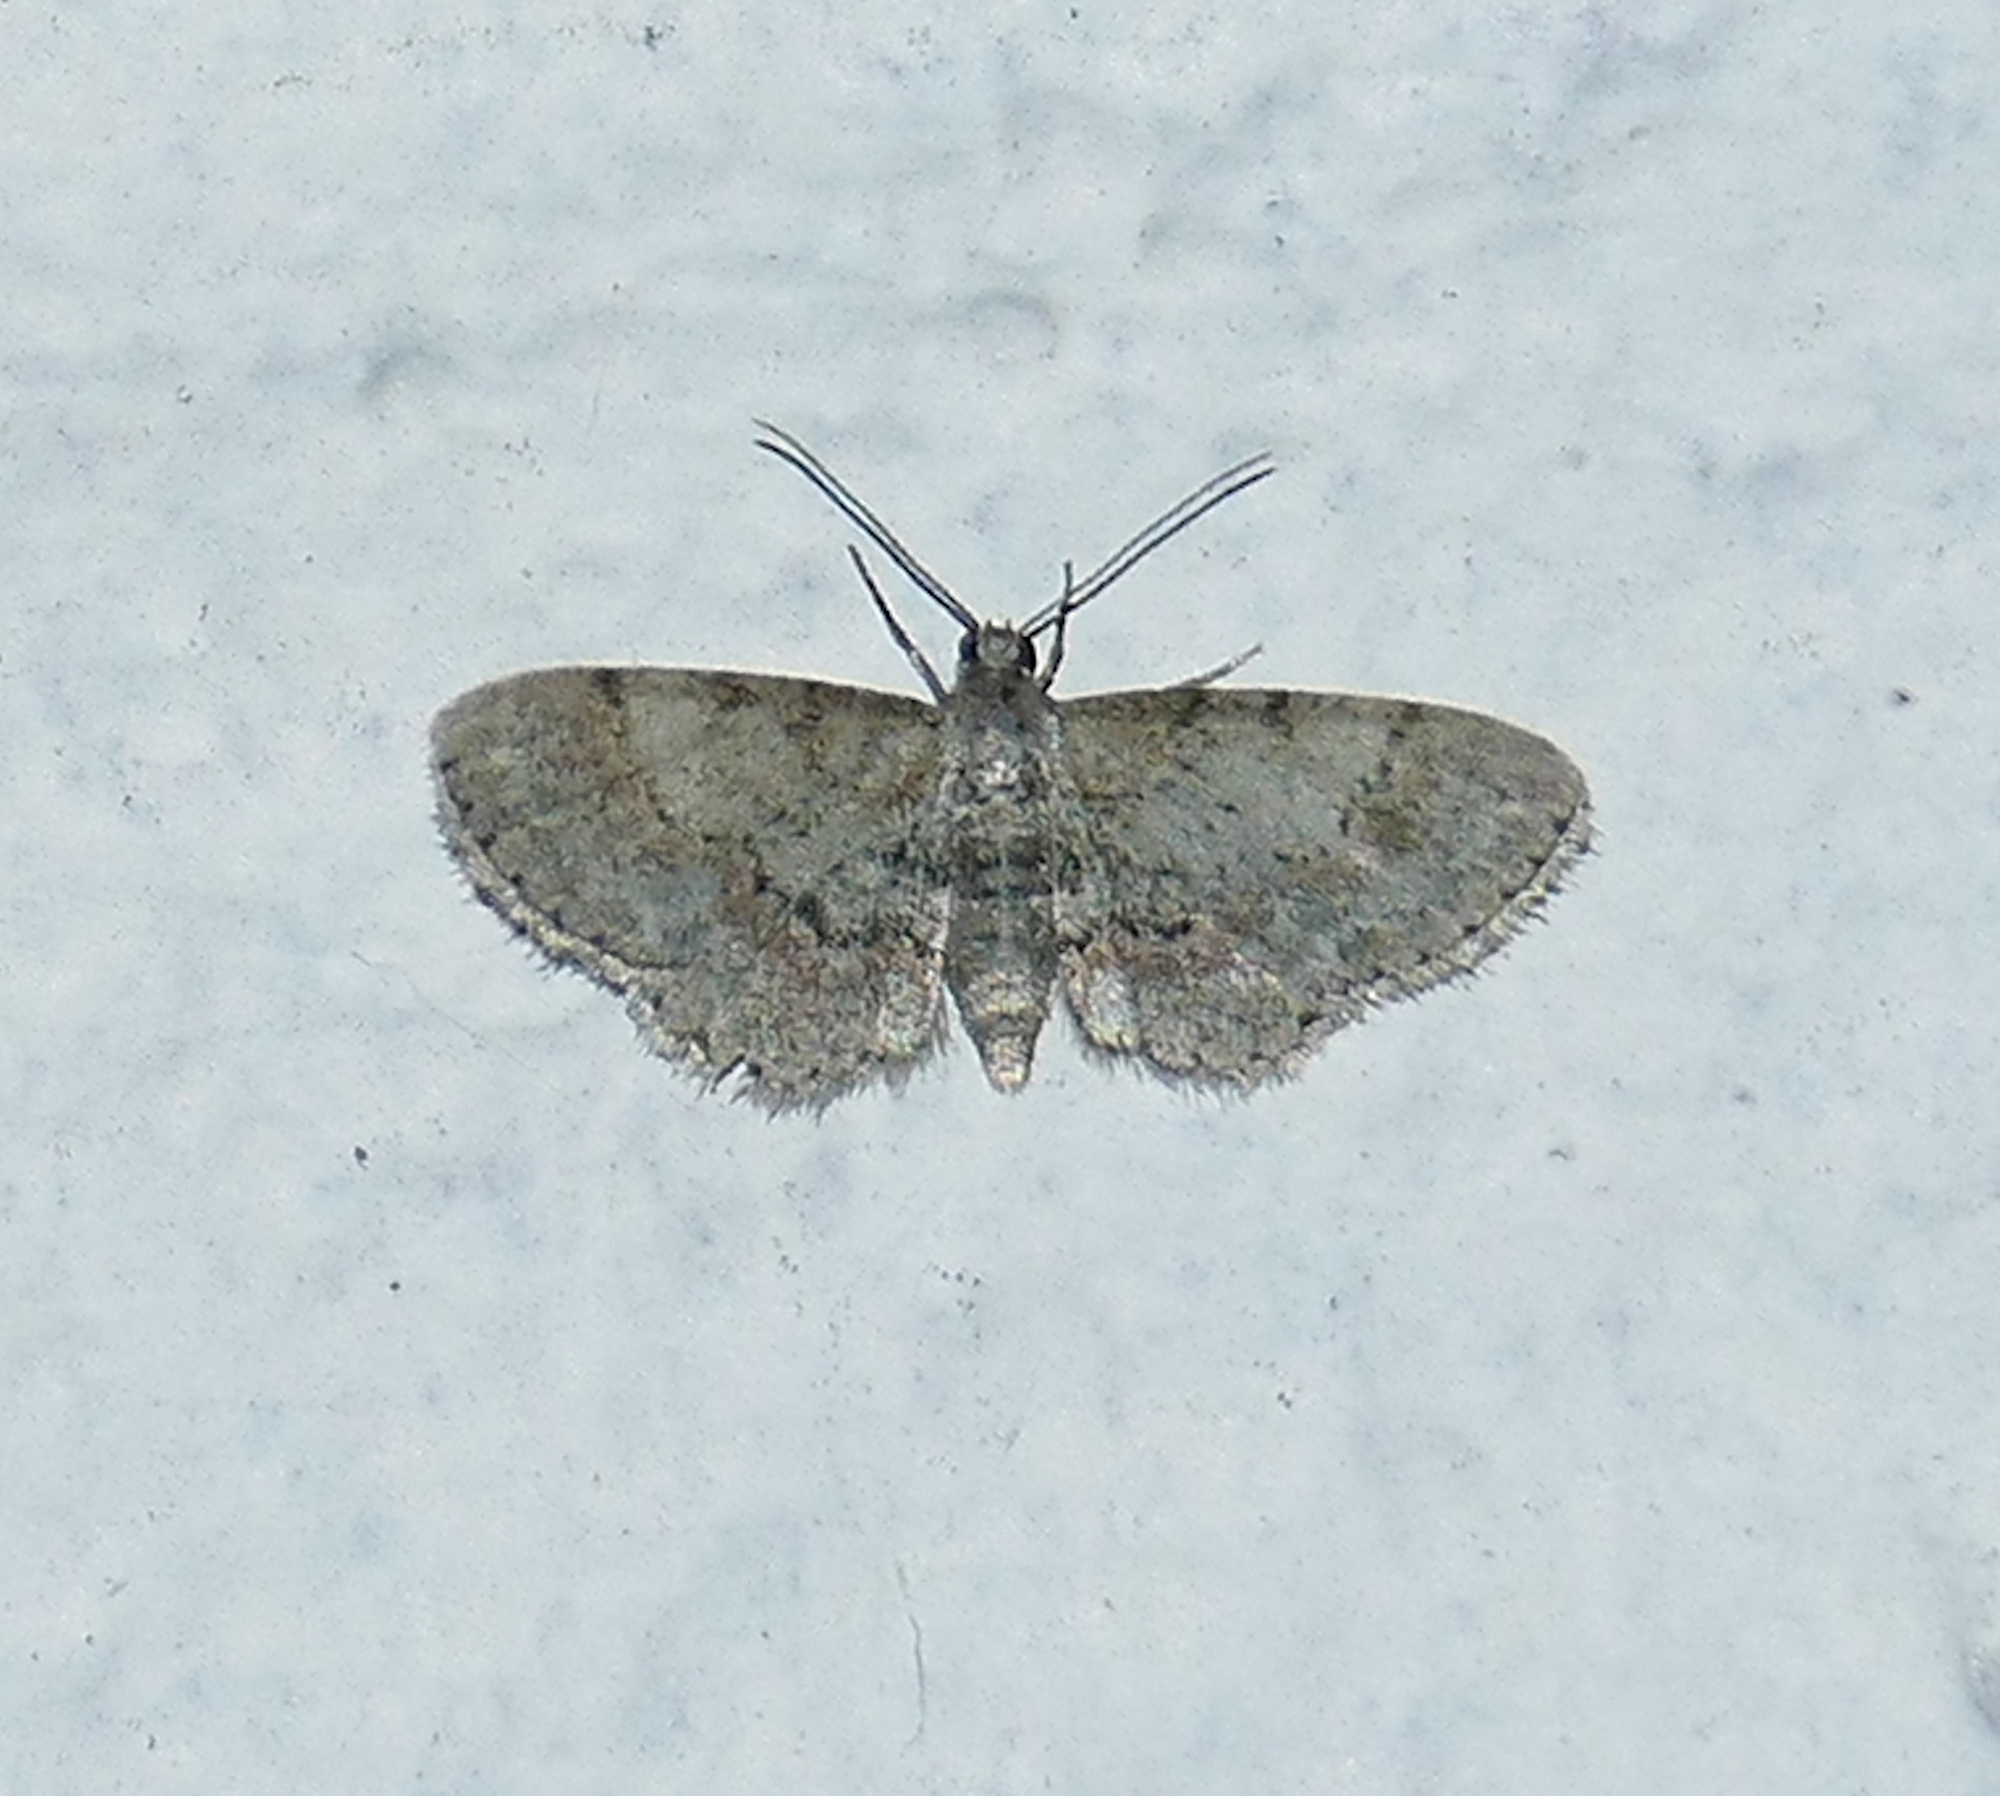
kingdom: Animalia
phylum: Arthropoda
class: Insecta
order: Lepidoptera
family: Geometridae
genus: Glenoides
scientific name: Glenoides texanaria
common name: Texas gray
